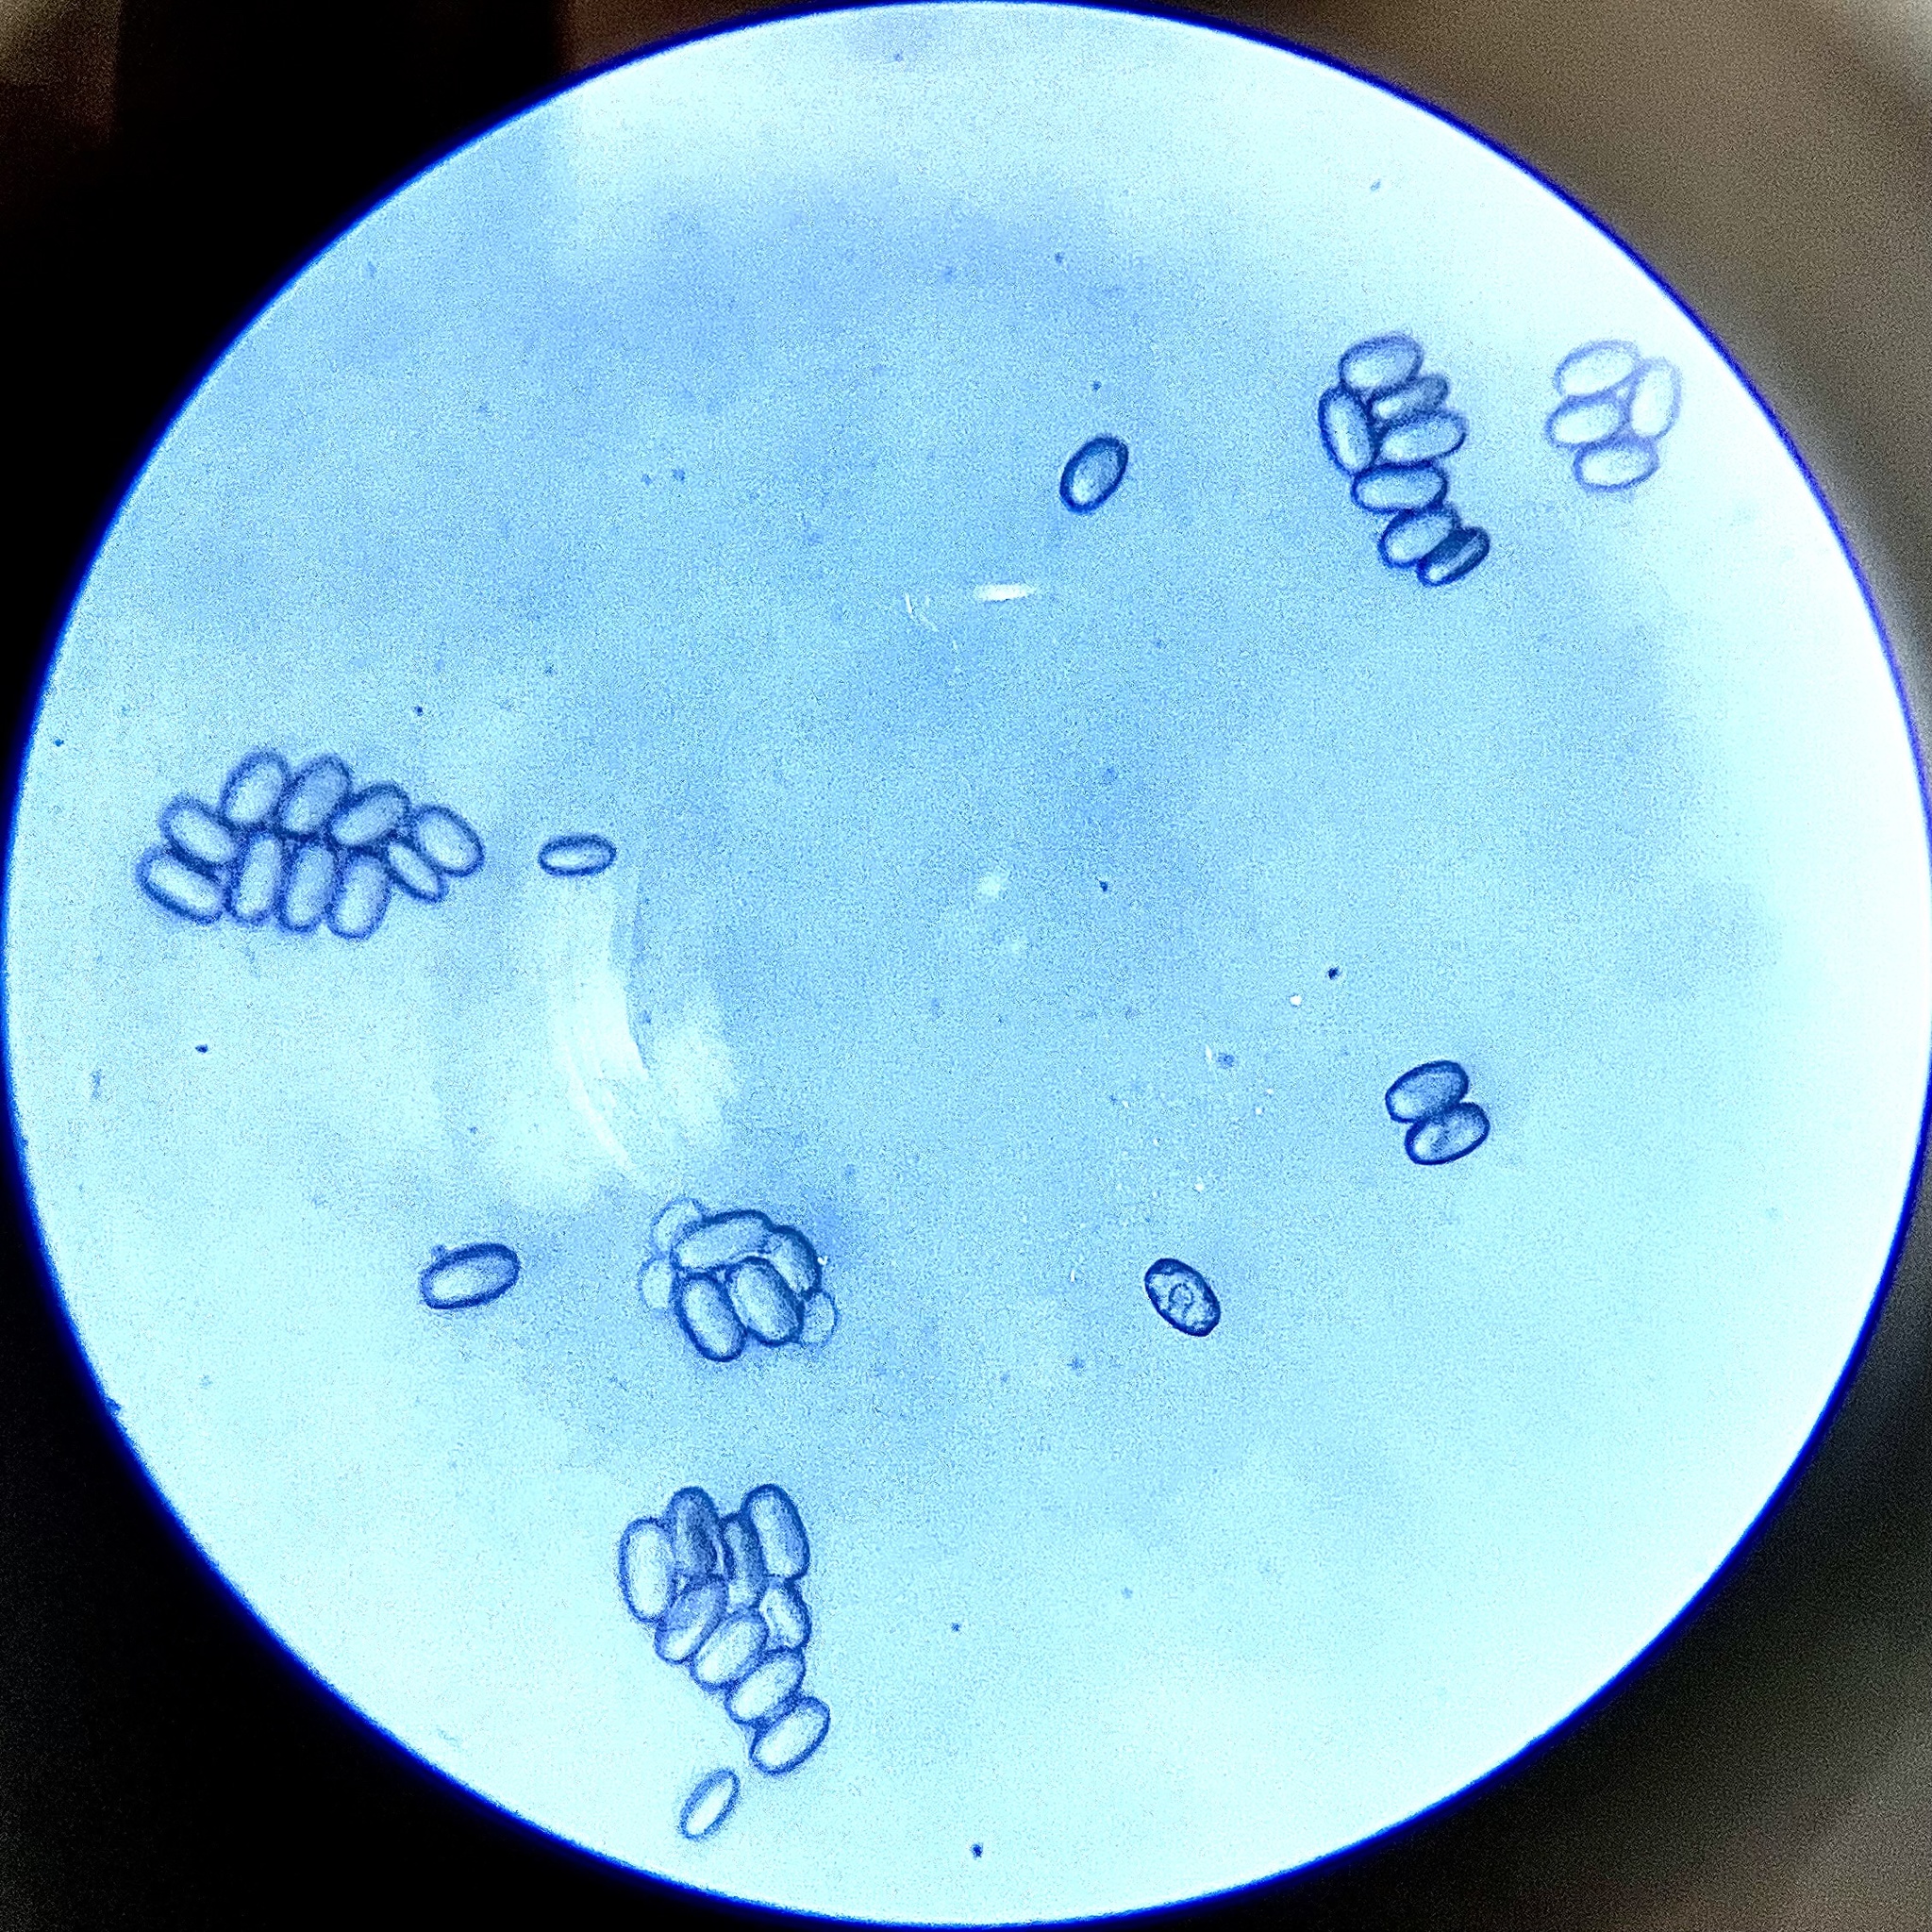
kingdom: Fungi
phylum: Ascomycota
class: Pezizomycetes
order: Pezizales
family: Sarcoscyphaceae
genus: Sarcoscypha
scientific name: Sarcoscypha occidentalis
